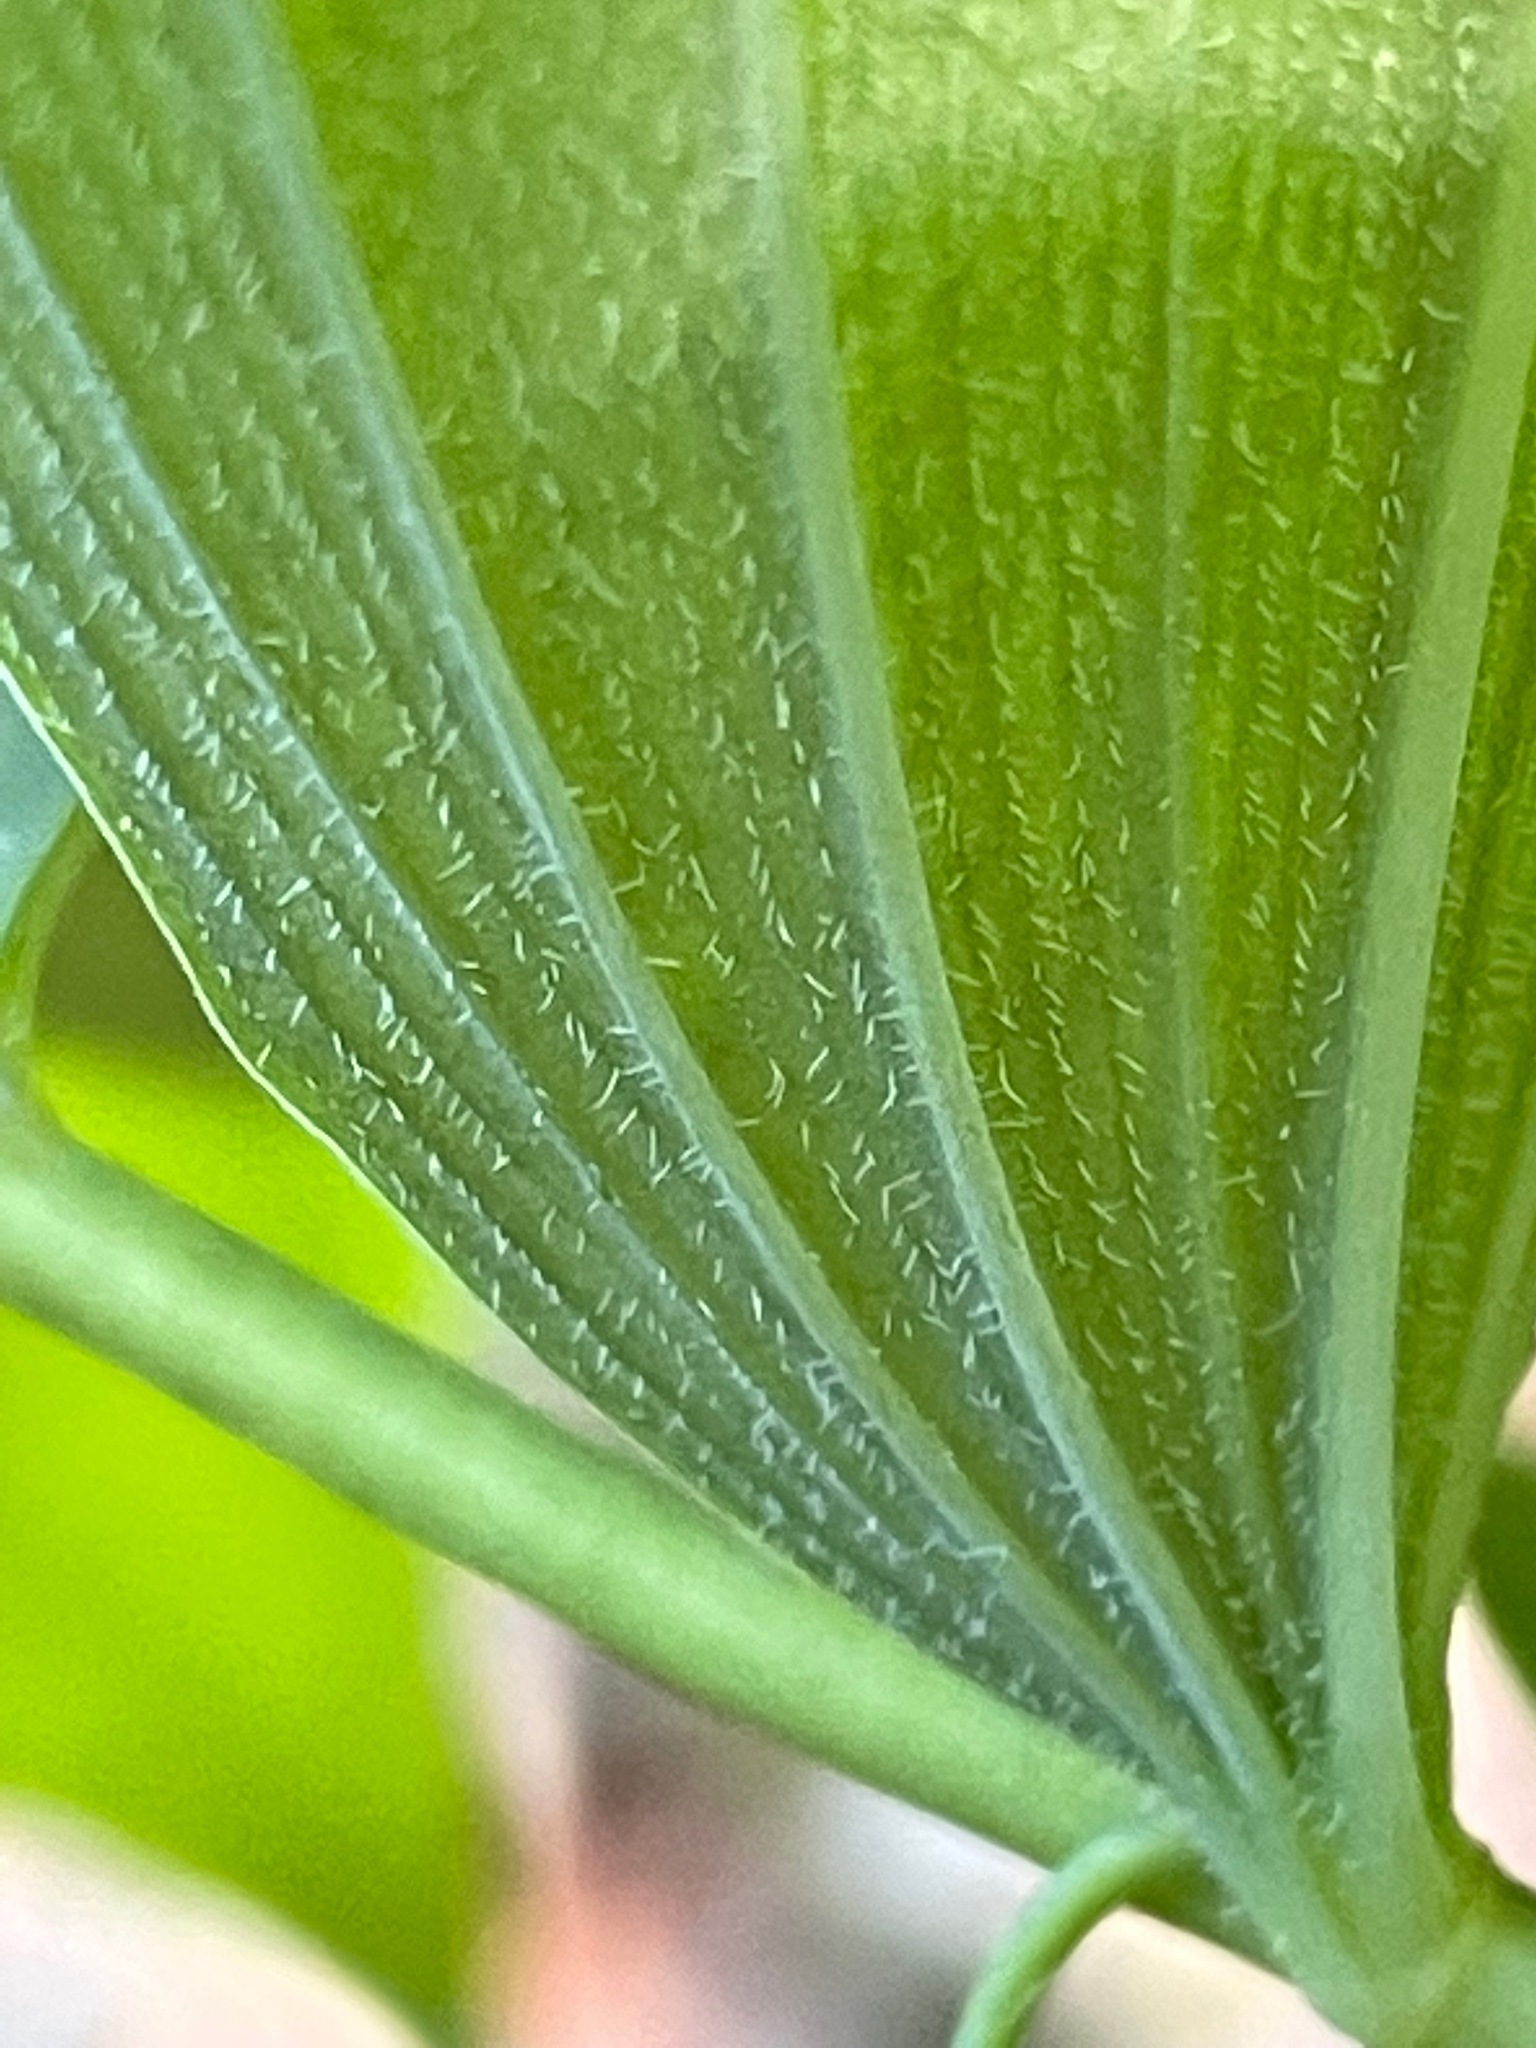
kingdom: Plantae
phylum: Tracheophyta
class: Liliopsida
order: Asparagales
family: Asparagaceae
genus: Polygonatum
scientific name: Polygonatum pubescens
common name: Downy solomon's seal
